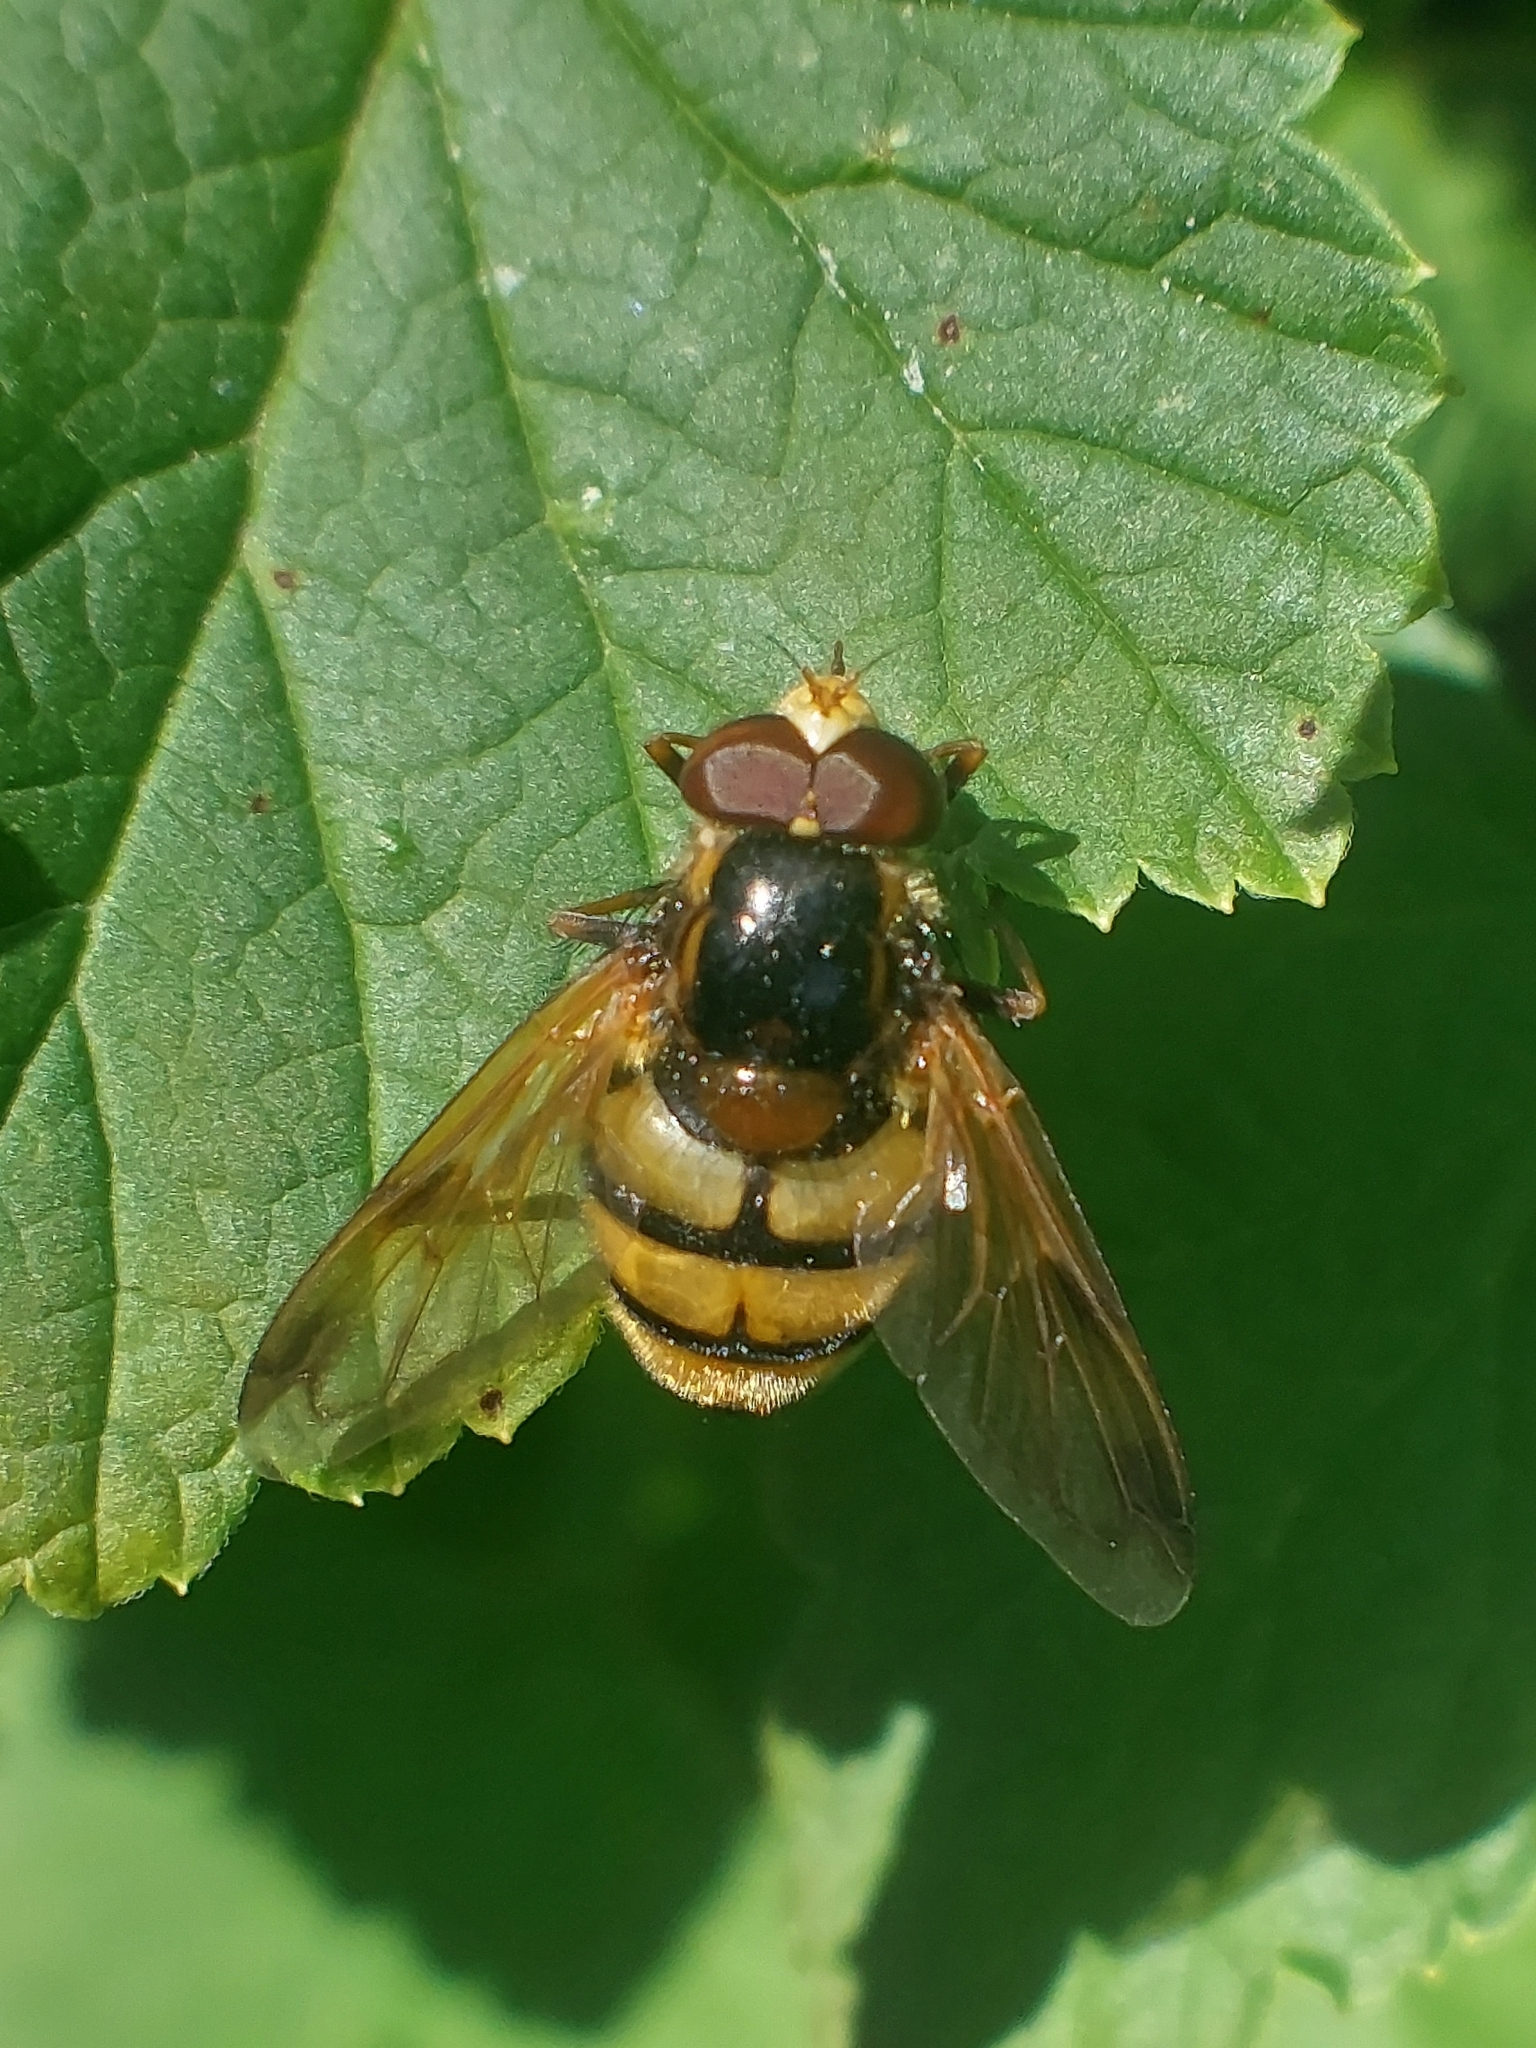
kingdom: Animalia
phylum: Arthropoda
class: Insecta
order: Diptera
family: Syrphidae
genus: Volucella
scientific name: Volucella inanis
